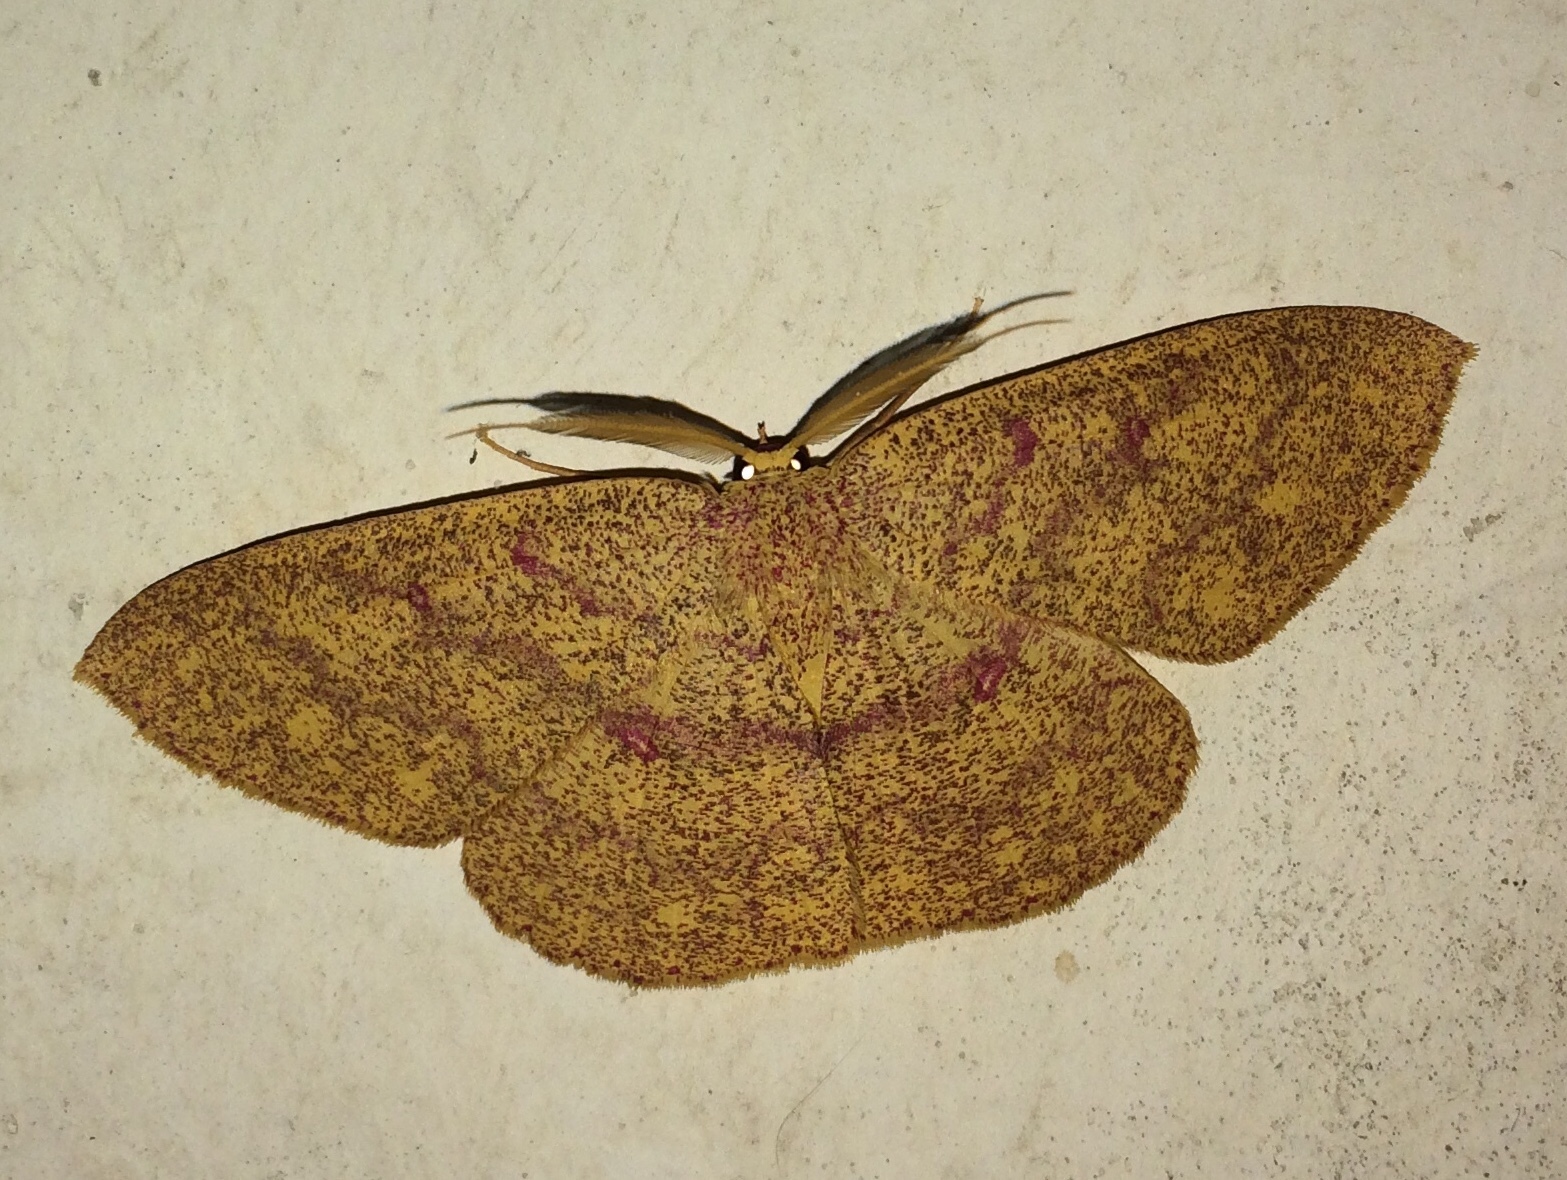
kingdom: Animalia
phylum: Arthropoda
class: Insecta
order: Lepidoptera
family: Geometridae
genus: Cyclophora
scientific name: Cyclophora
